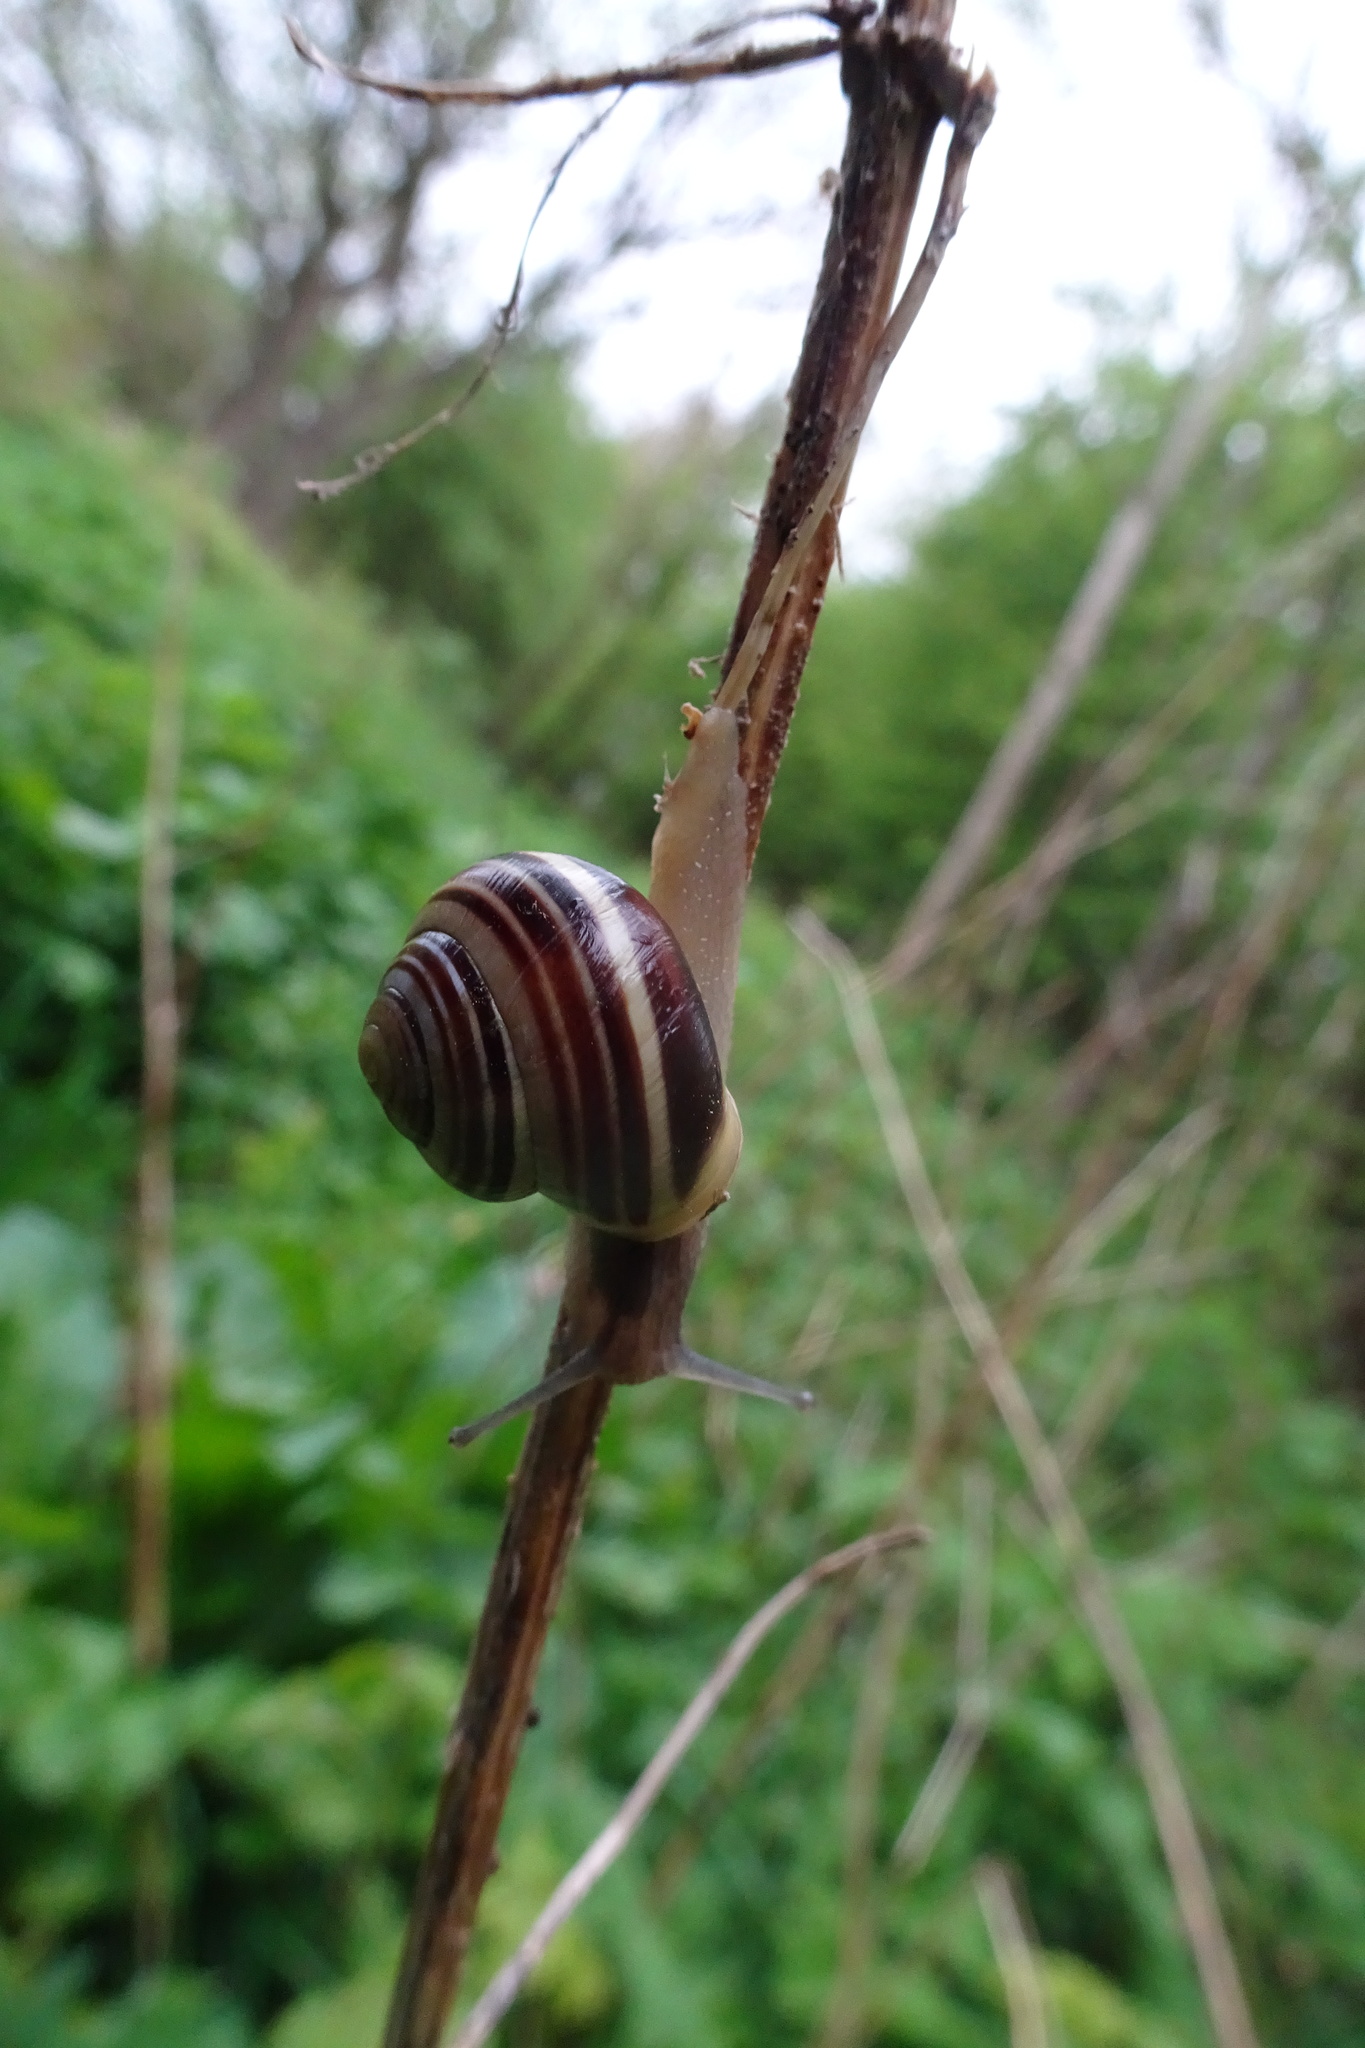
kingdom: Animalia
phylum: Mollusca
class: Gastropoda
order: Stylommatophora
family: Helicidae
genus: Cepaea
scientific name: Cepaea hortensis
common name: White-lip gardensnail
